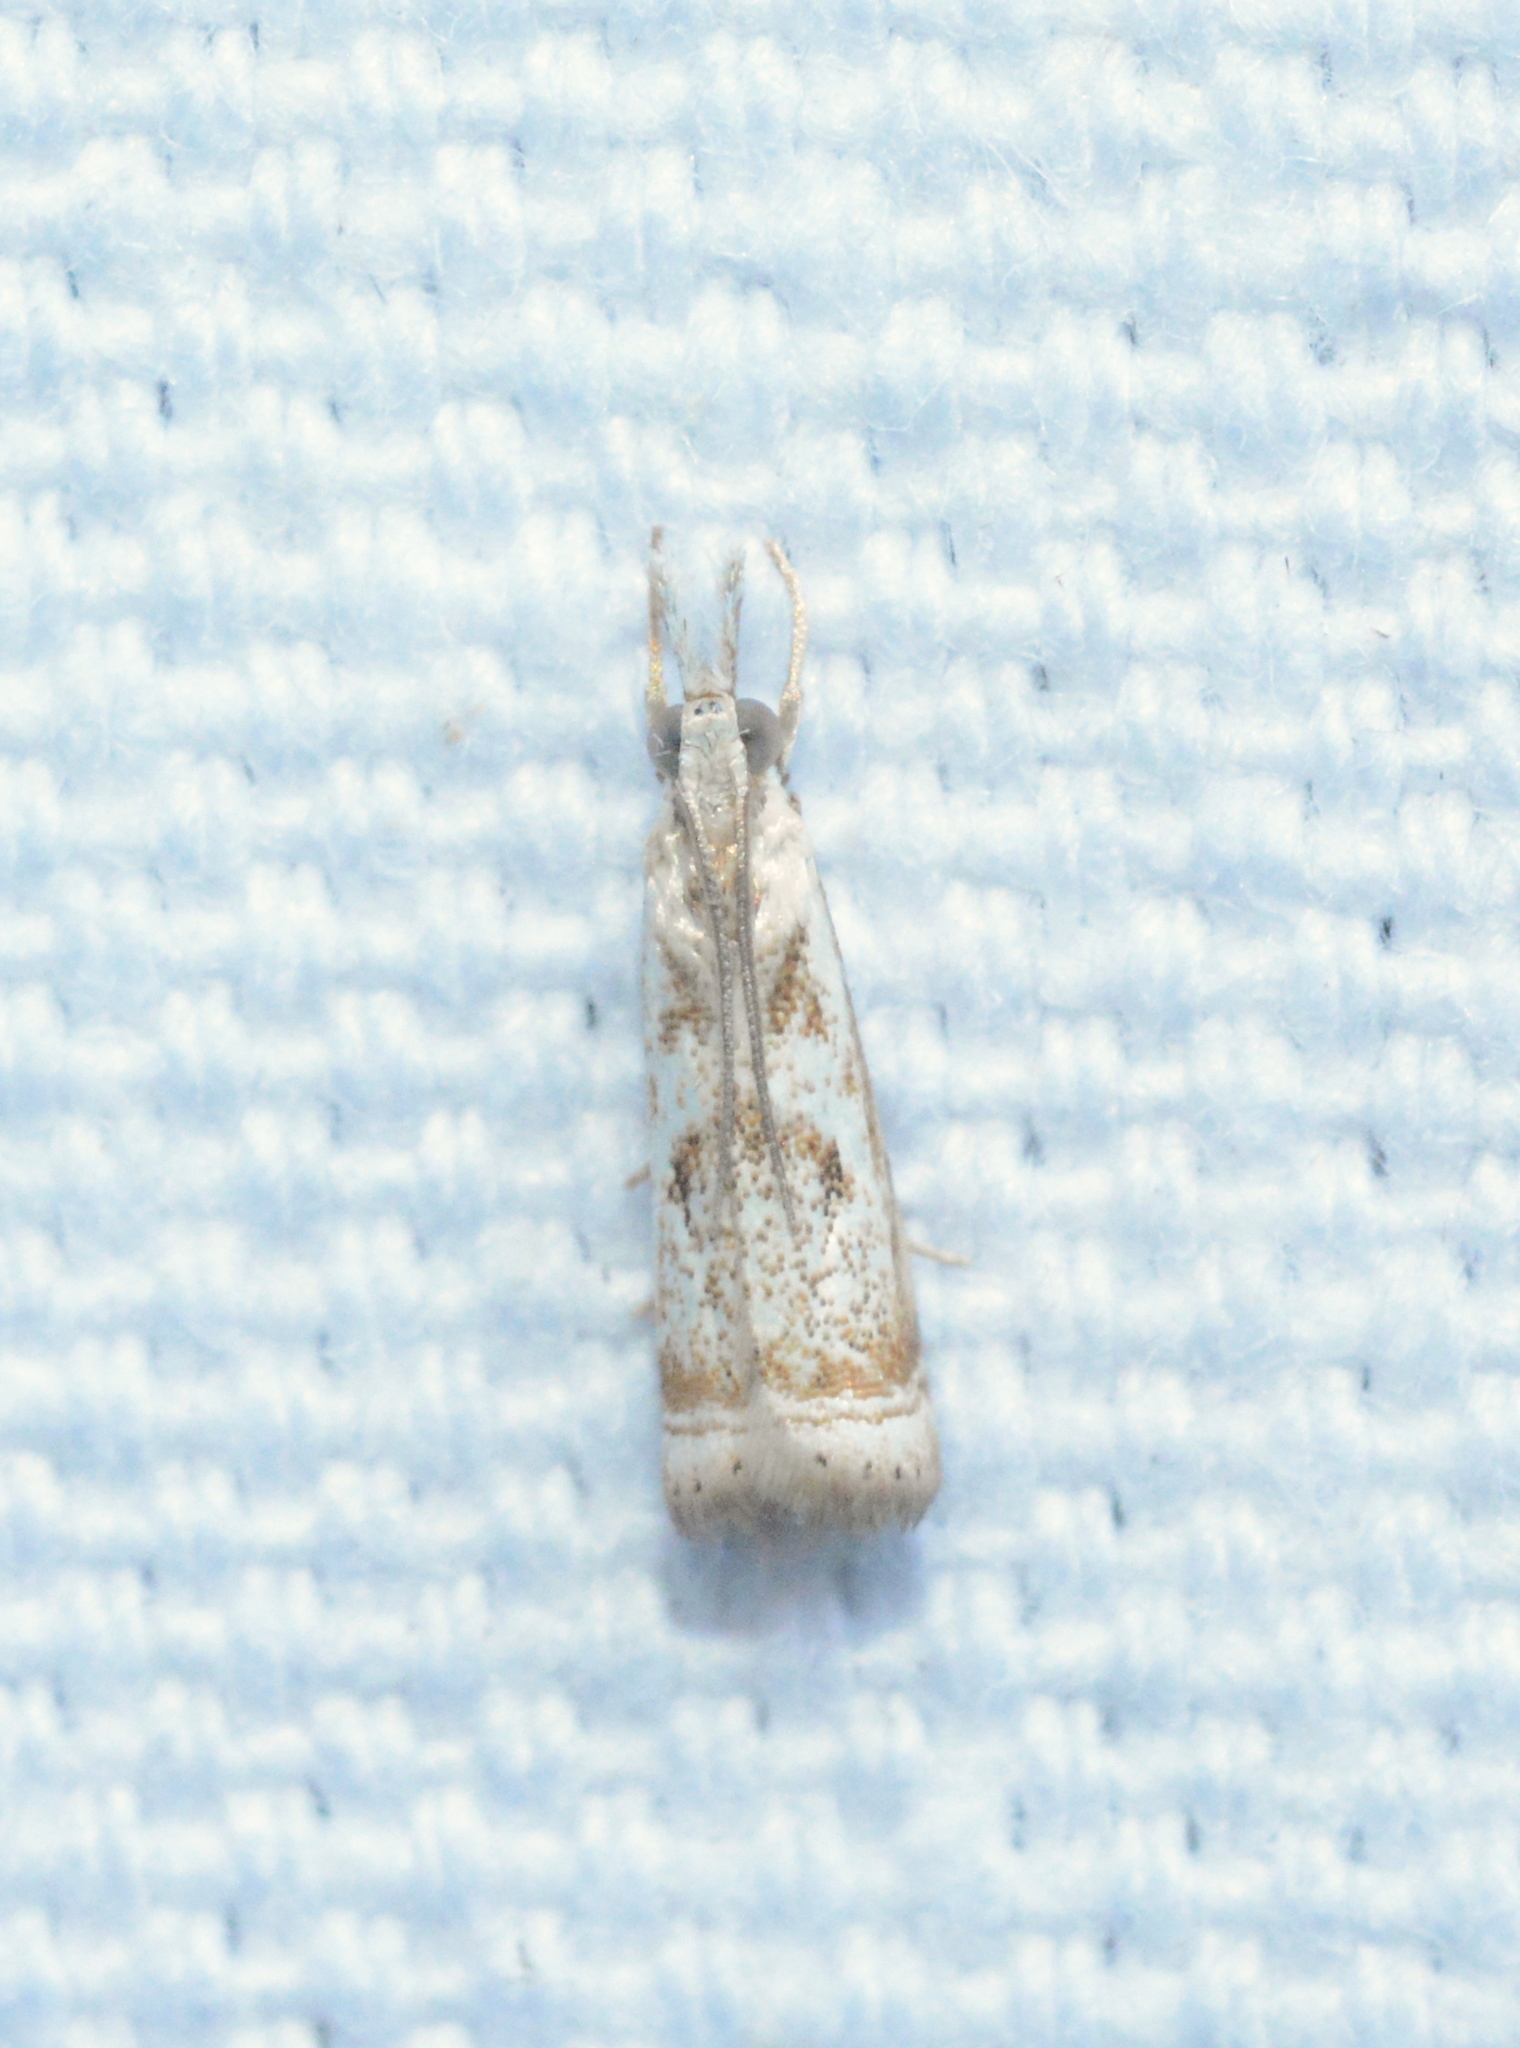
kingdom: Animalia
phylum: Arthropoda
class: Insecta
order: Lepidoptera
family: Crambidae
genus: Microcrambus
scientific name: Microcrambus elegans
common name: Elegant grass-veneer
